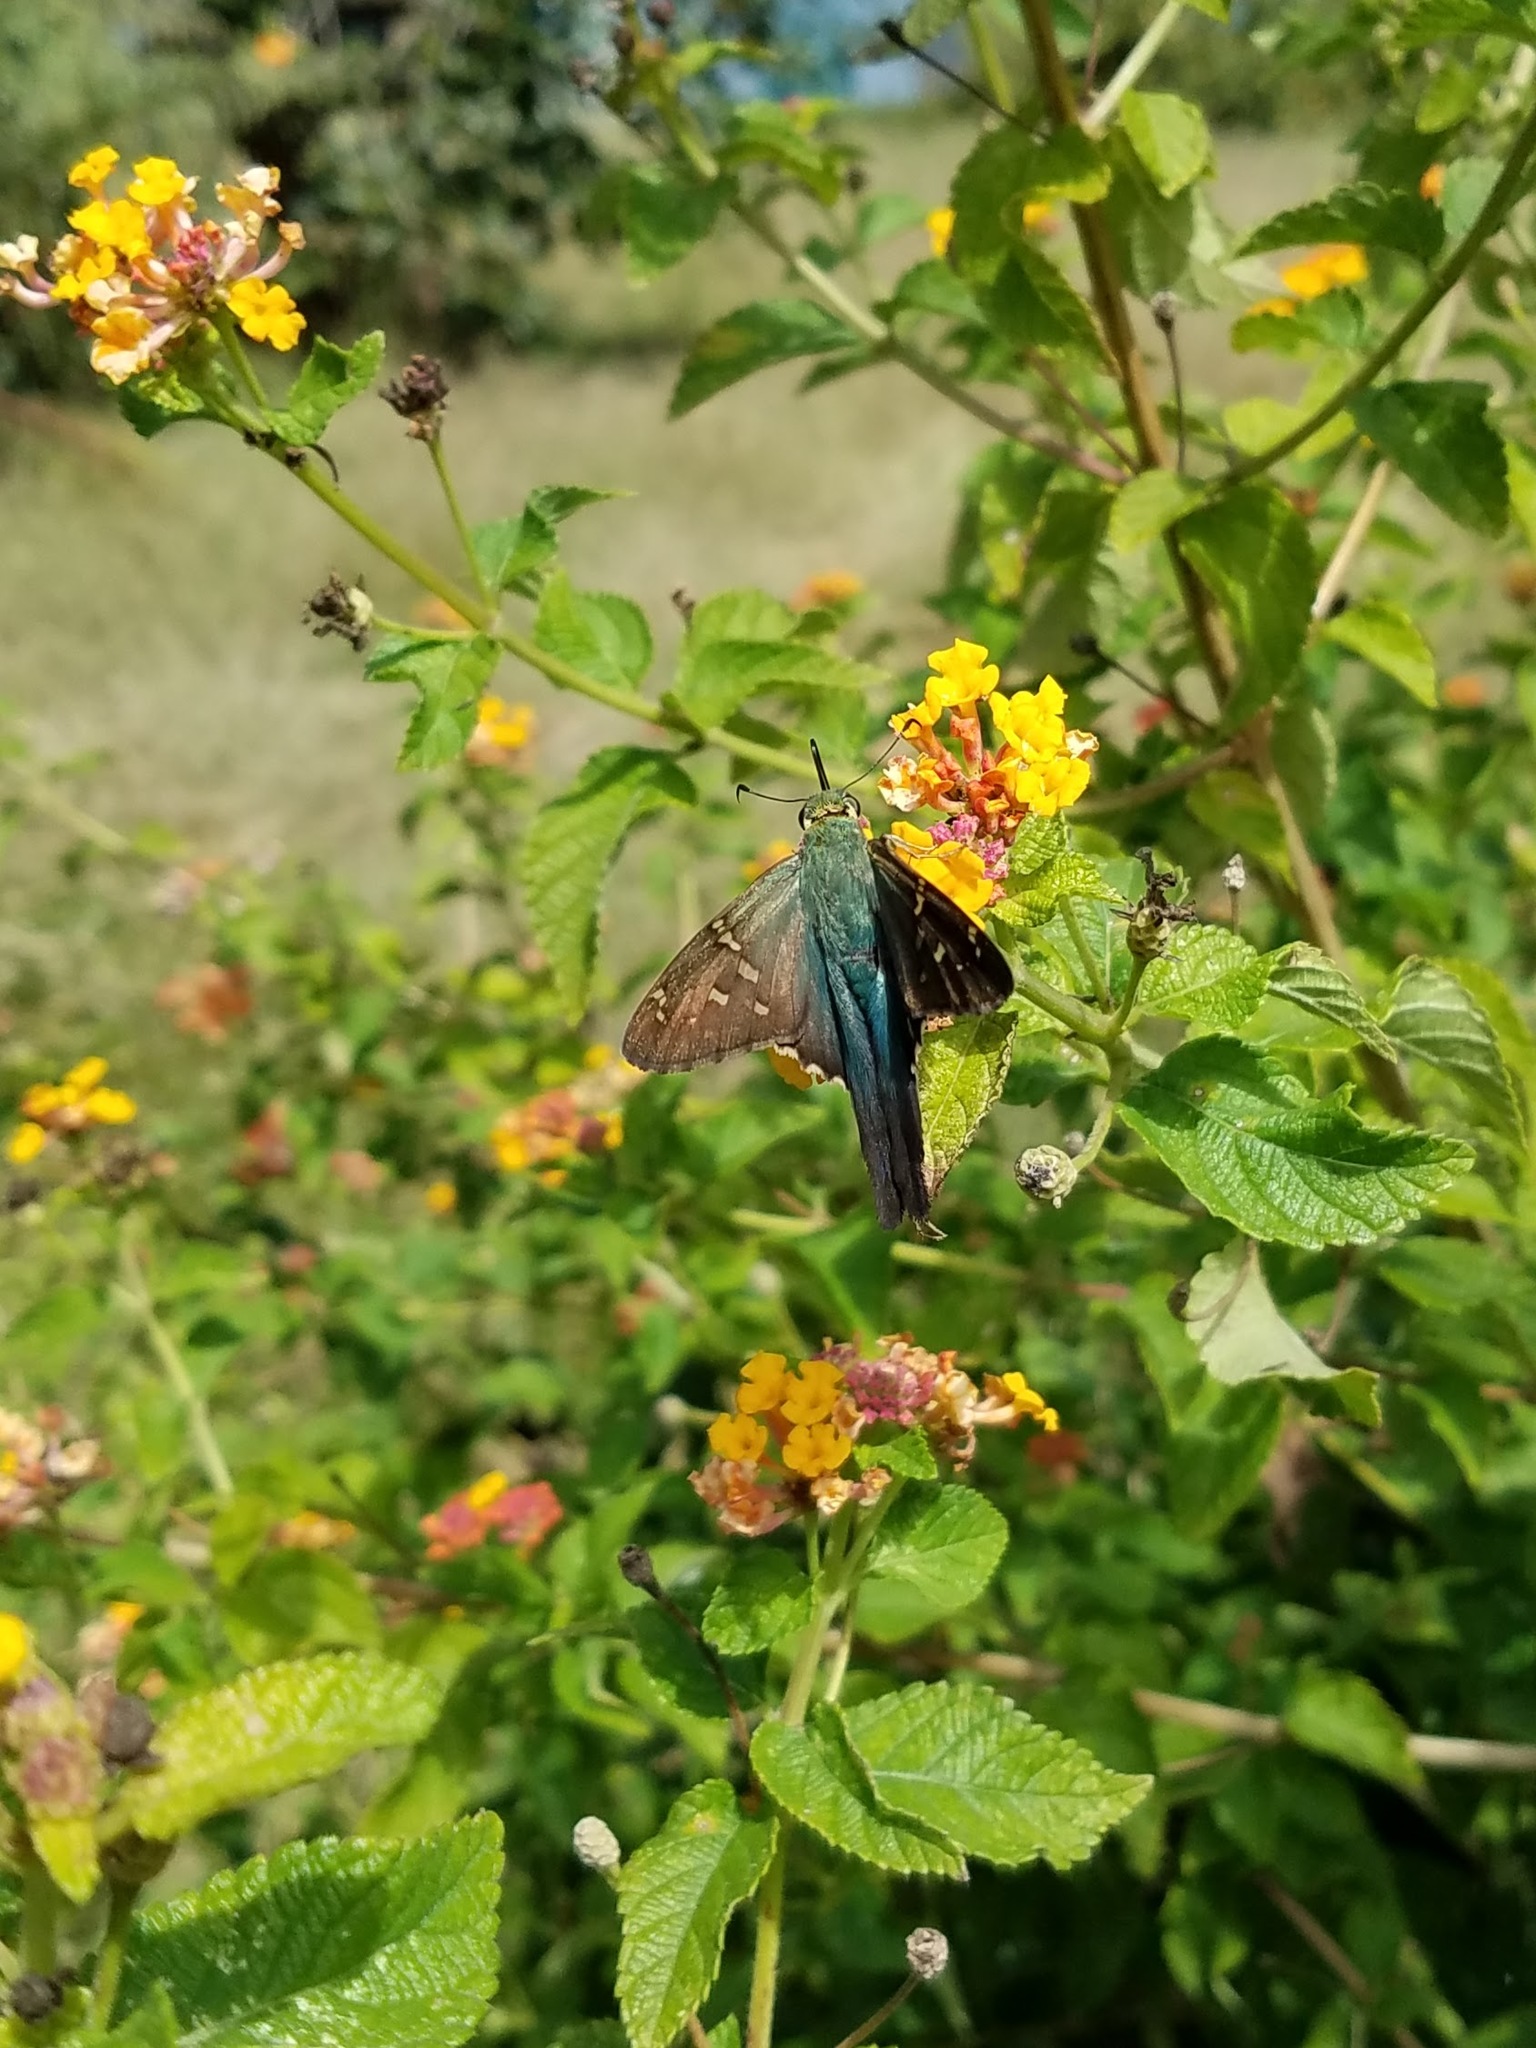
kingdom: Animalia
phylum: Arthropoda
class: Insecta
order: Lepidoptera
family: Hesperiidae
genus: Urbanus
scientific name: Urbanus proteus
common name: Long-tailed skipper
